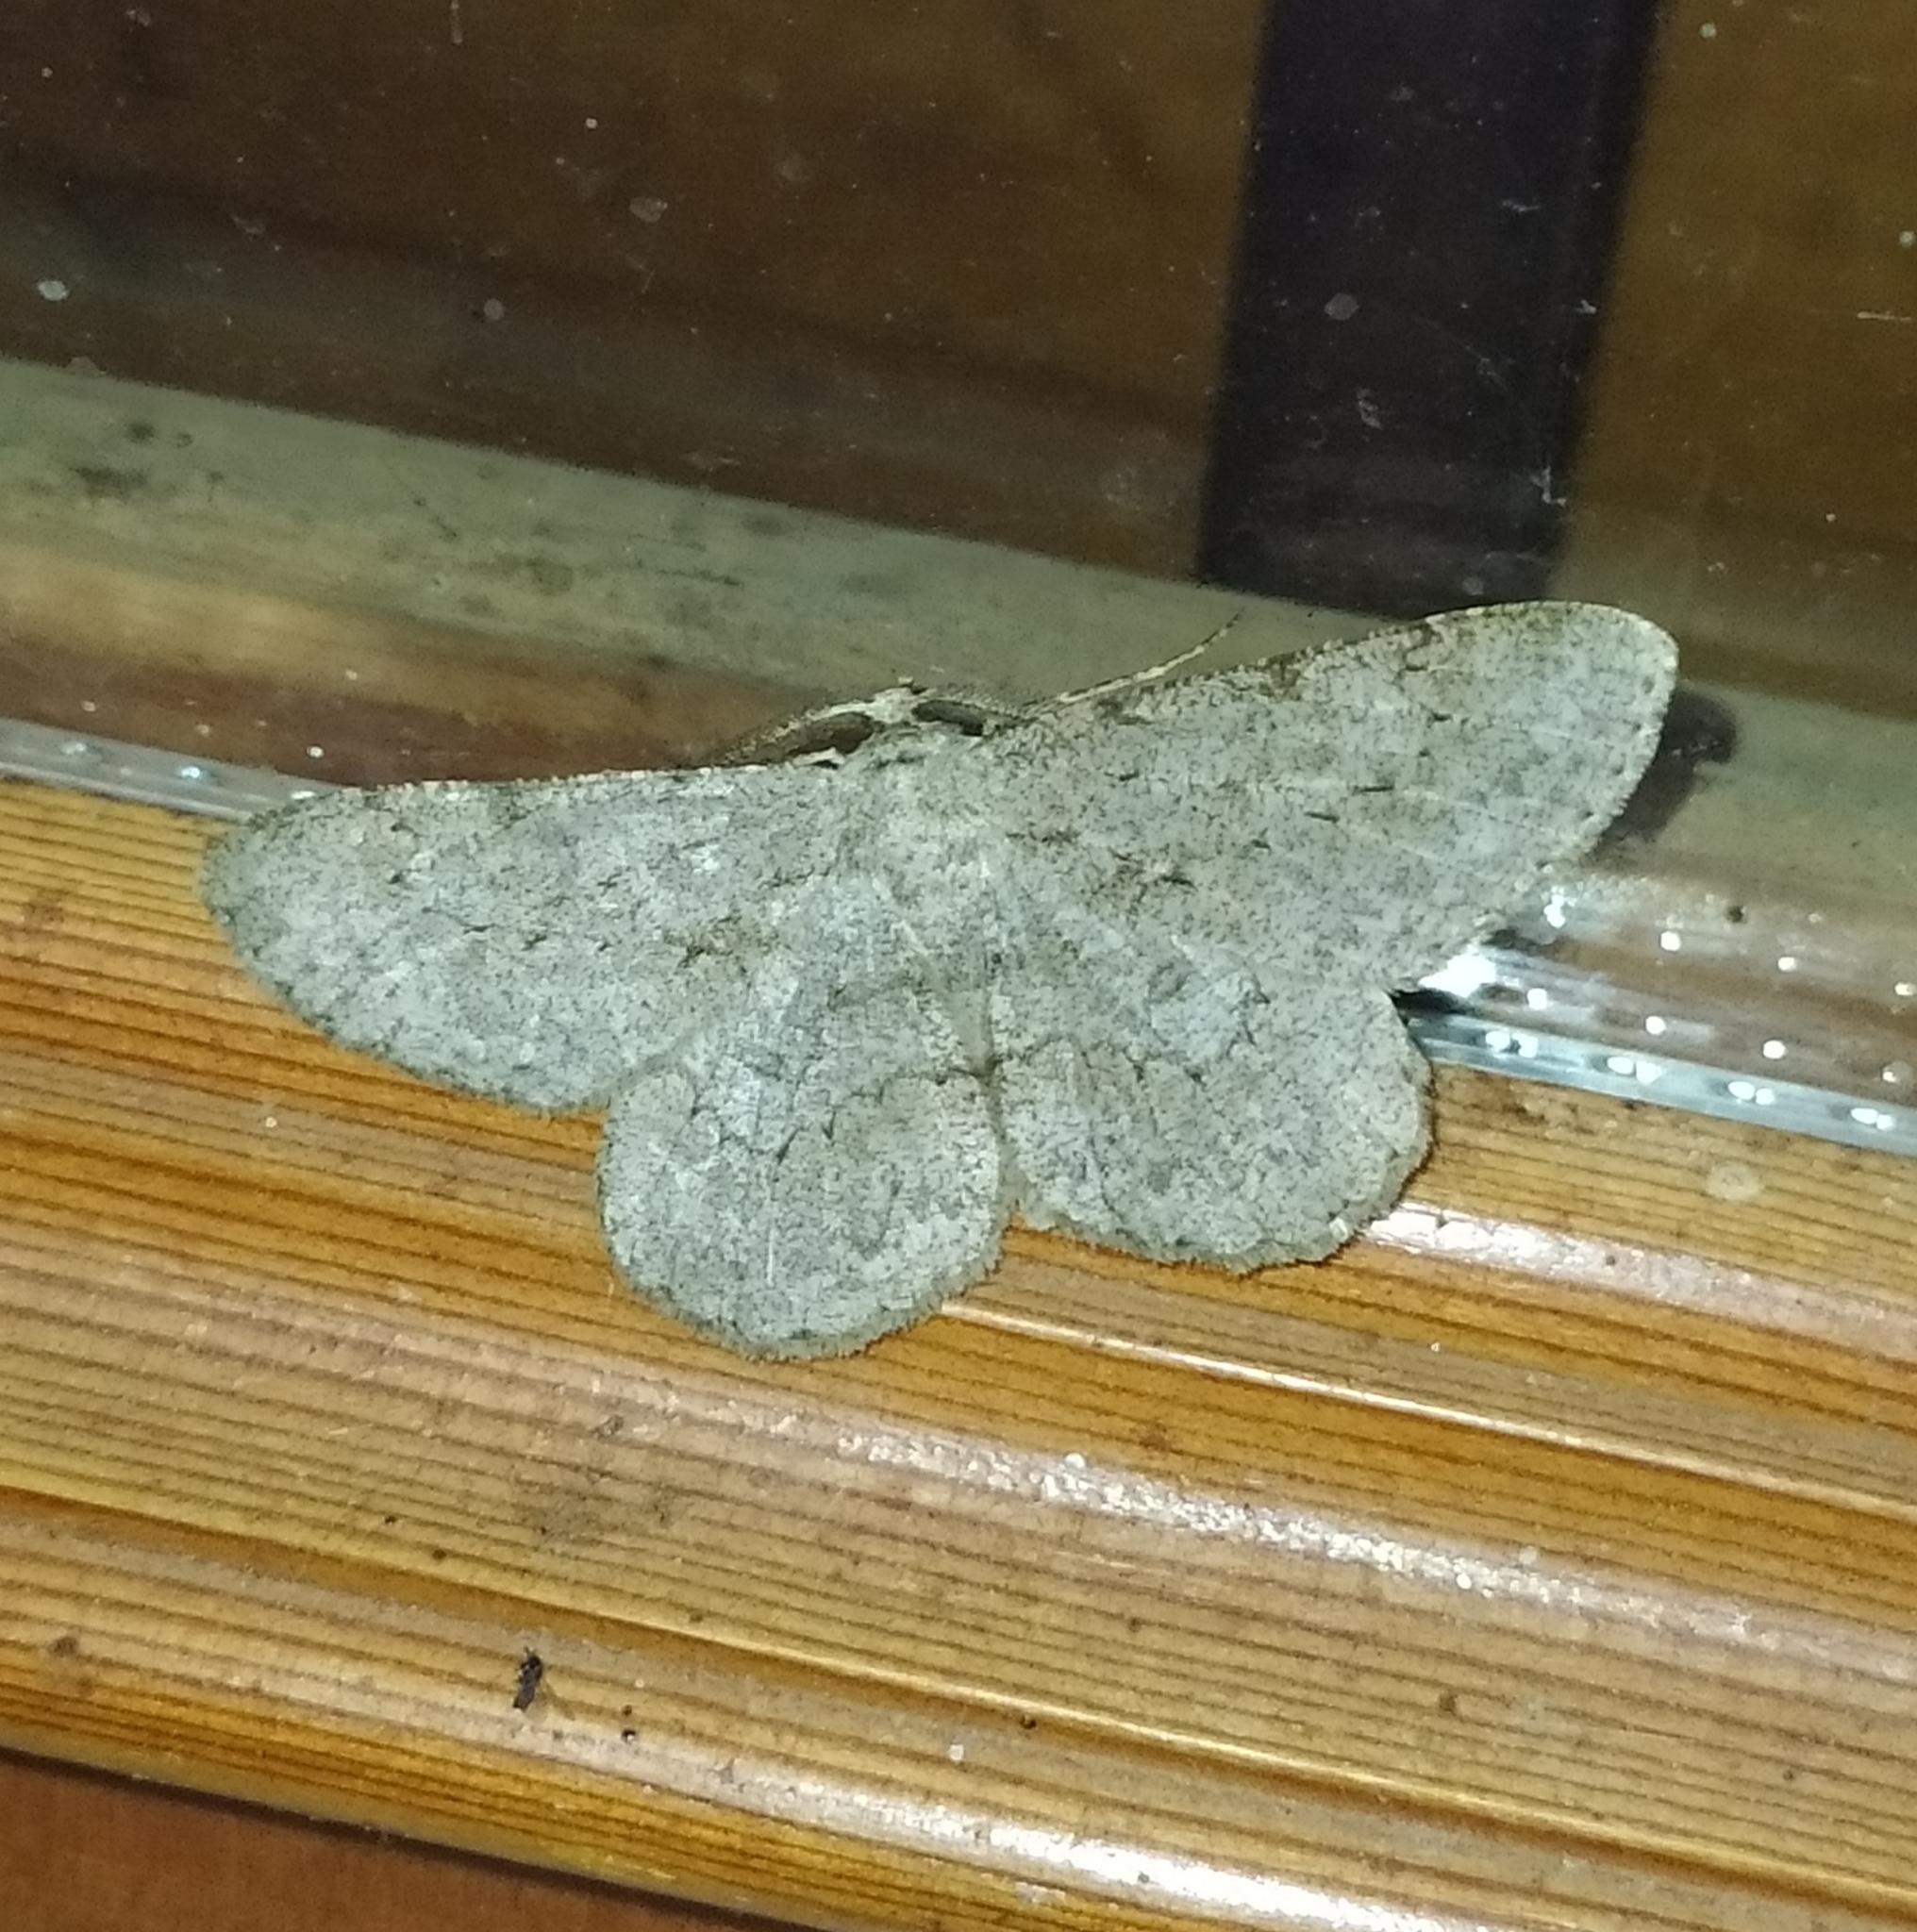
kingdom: Animalia
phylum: Arthropoda
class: Insecta
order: Lepidoptera
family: Geometridae
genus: Hypomecis
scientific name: Hypomecis punctinalis
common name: Pale oak beauty
